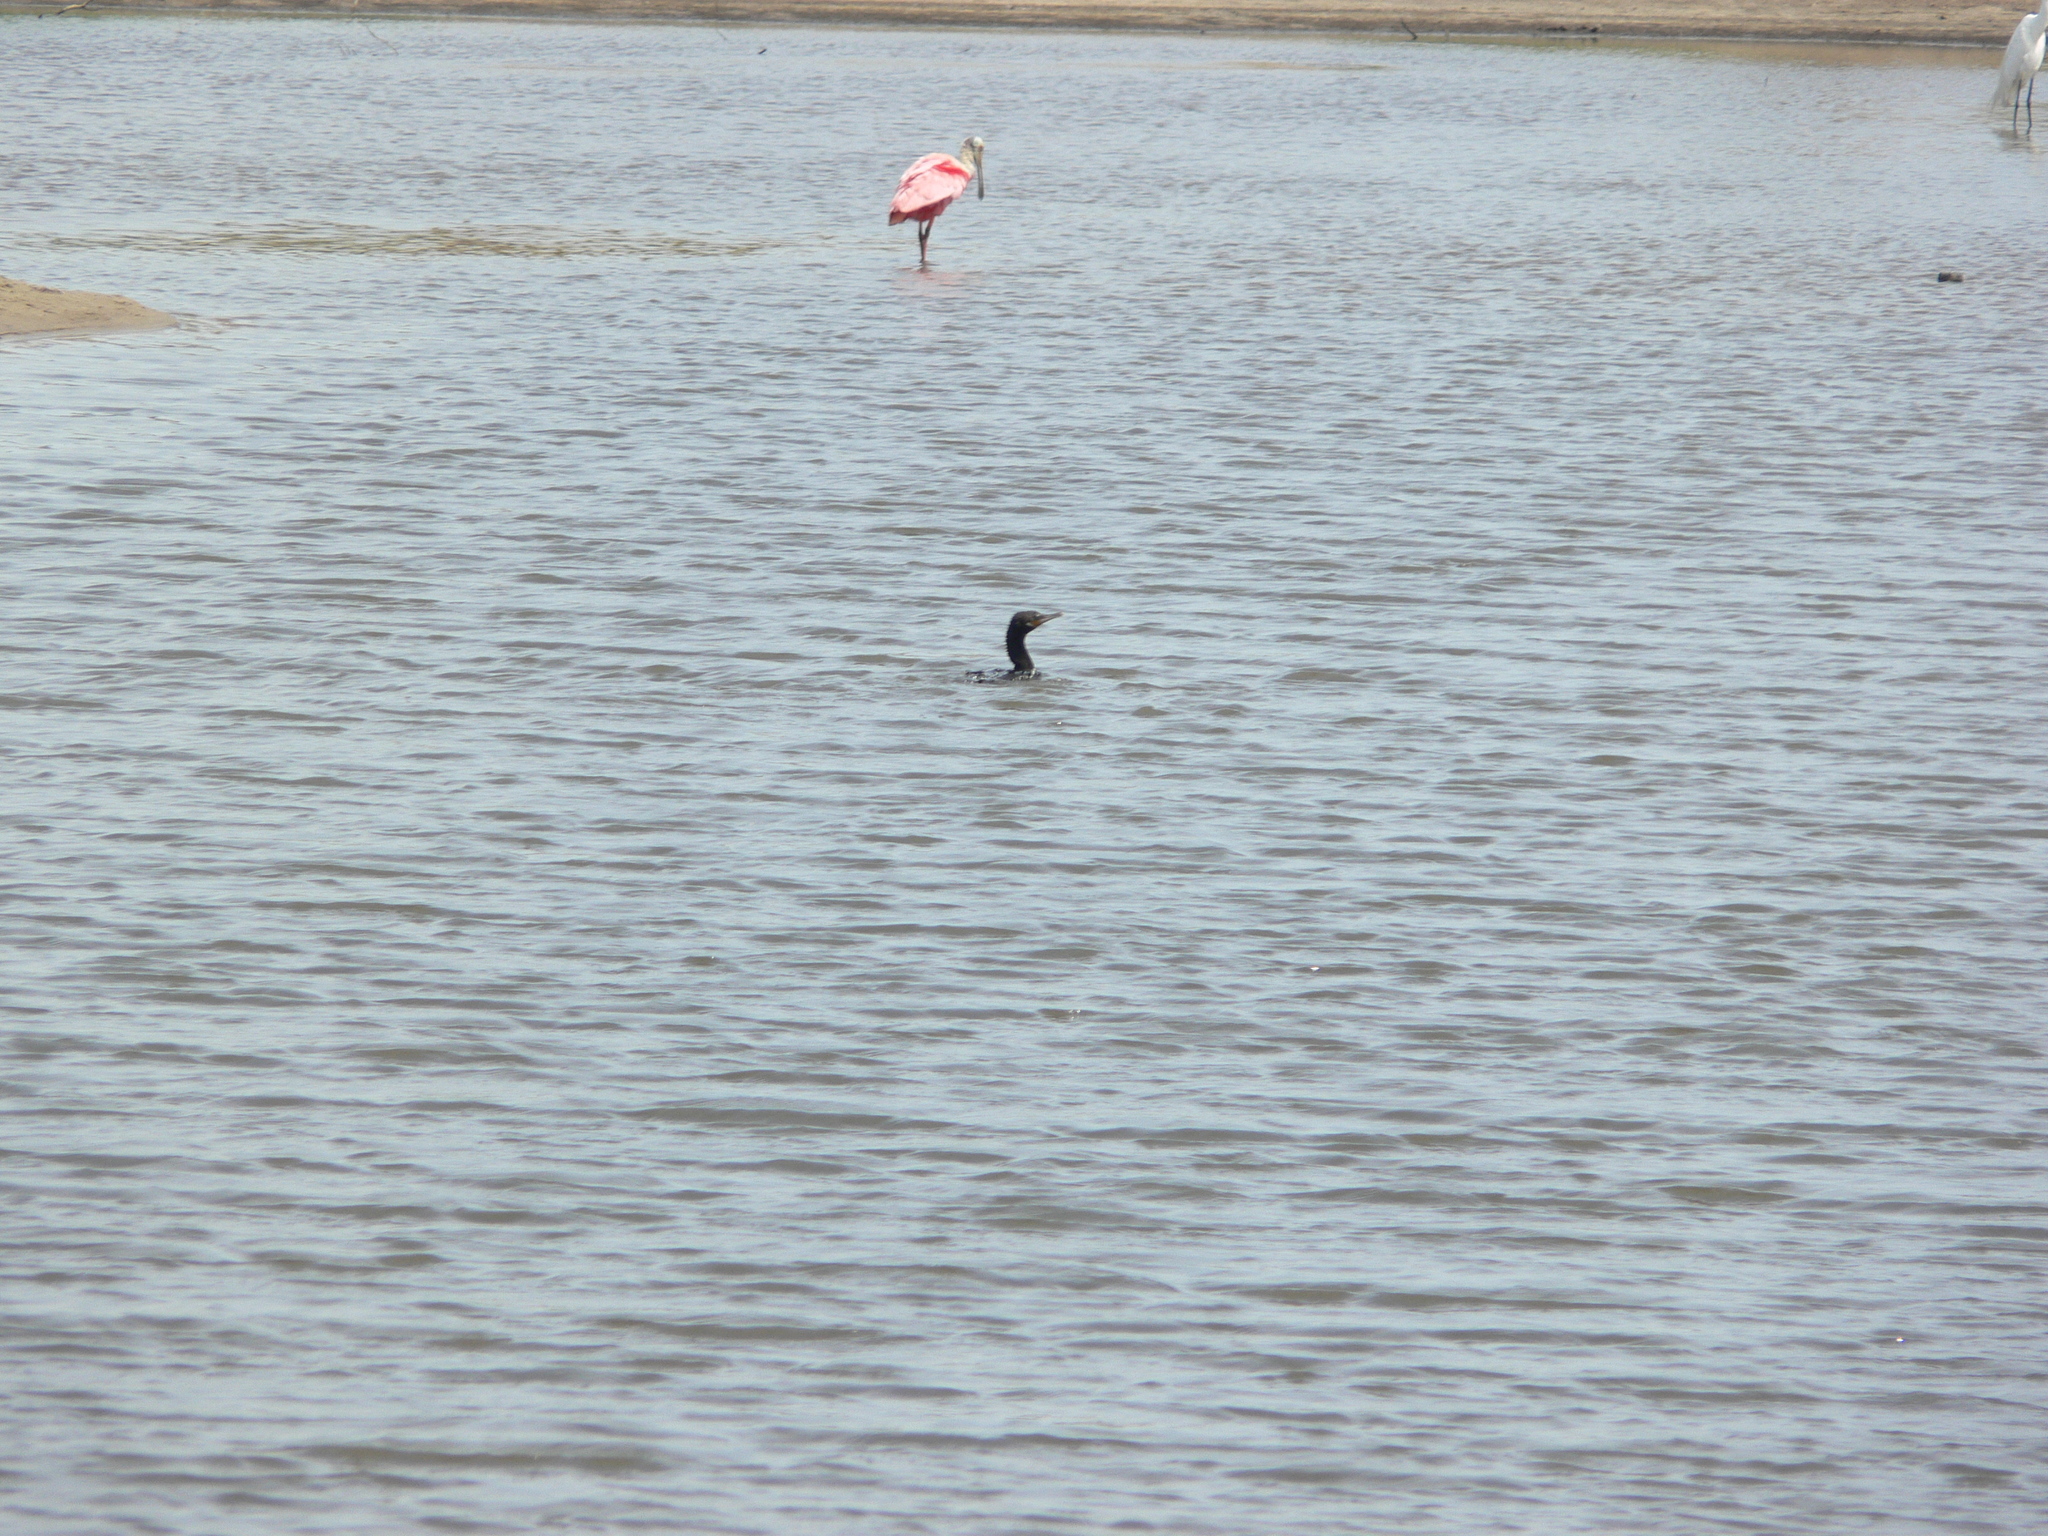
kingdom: Animalia
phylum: Chordata
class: Aves
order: Suliformes
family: Phalacrocoracidae
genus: Phalacrocorax
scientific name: Phalacrocorax brasilianus
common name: Neotropic cormorant
